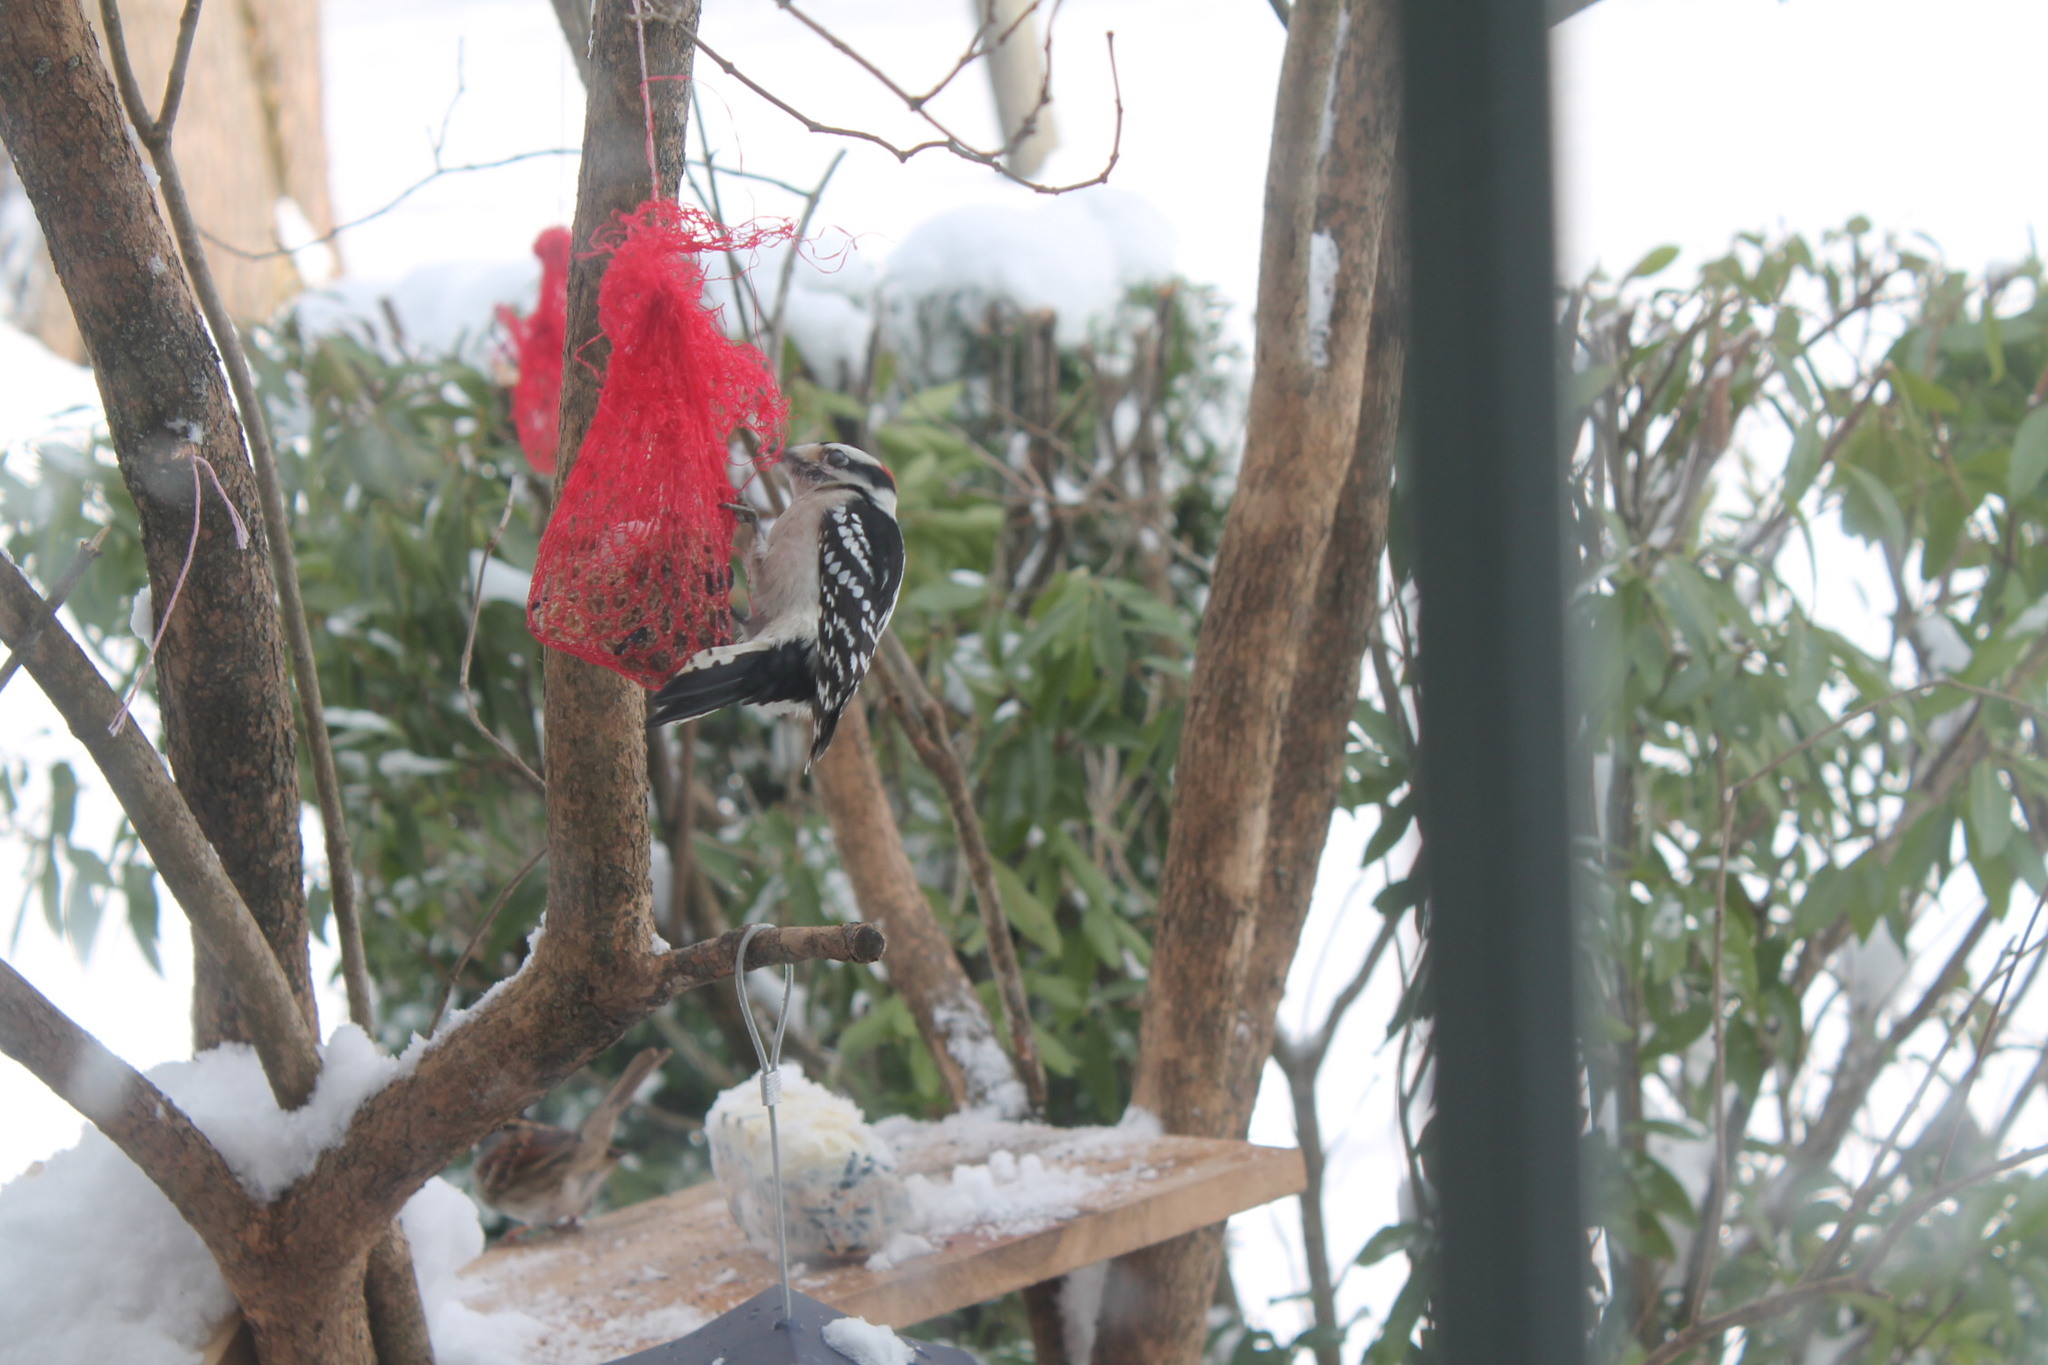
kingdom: Animalia
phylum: Chordata
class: Aves
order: Piciformes
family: Picidae
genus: Dryobates
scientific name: Dryobates pubescens
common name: Downy woodpecker
